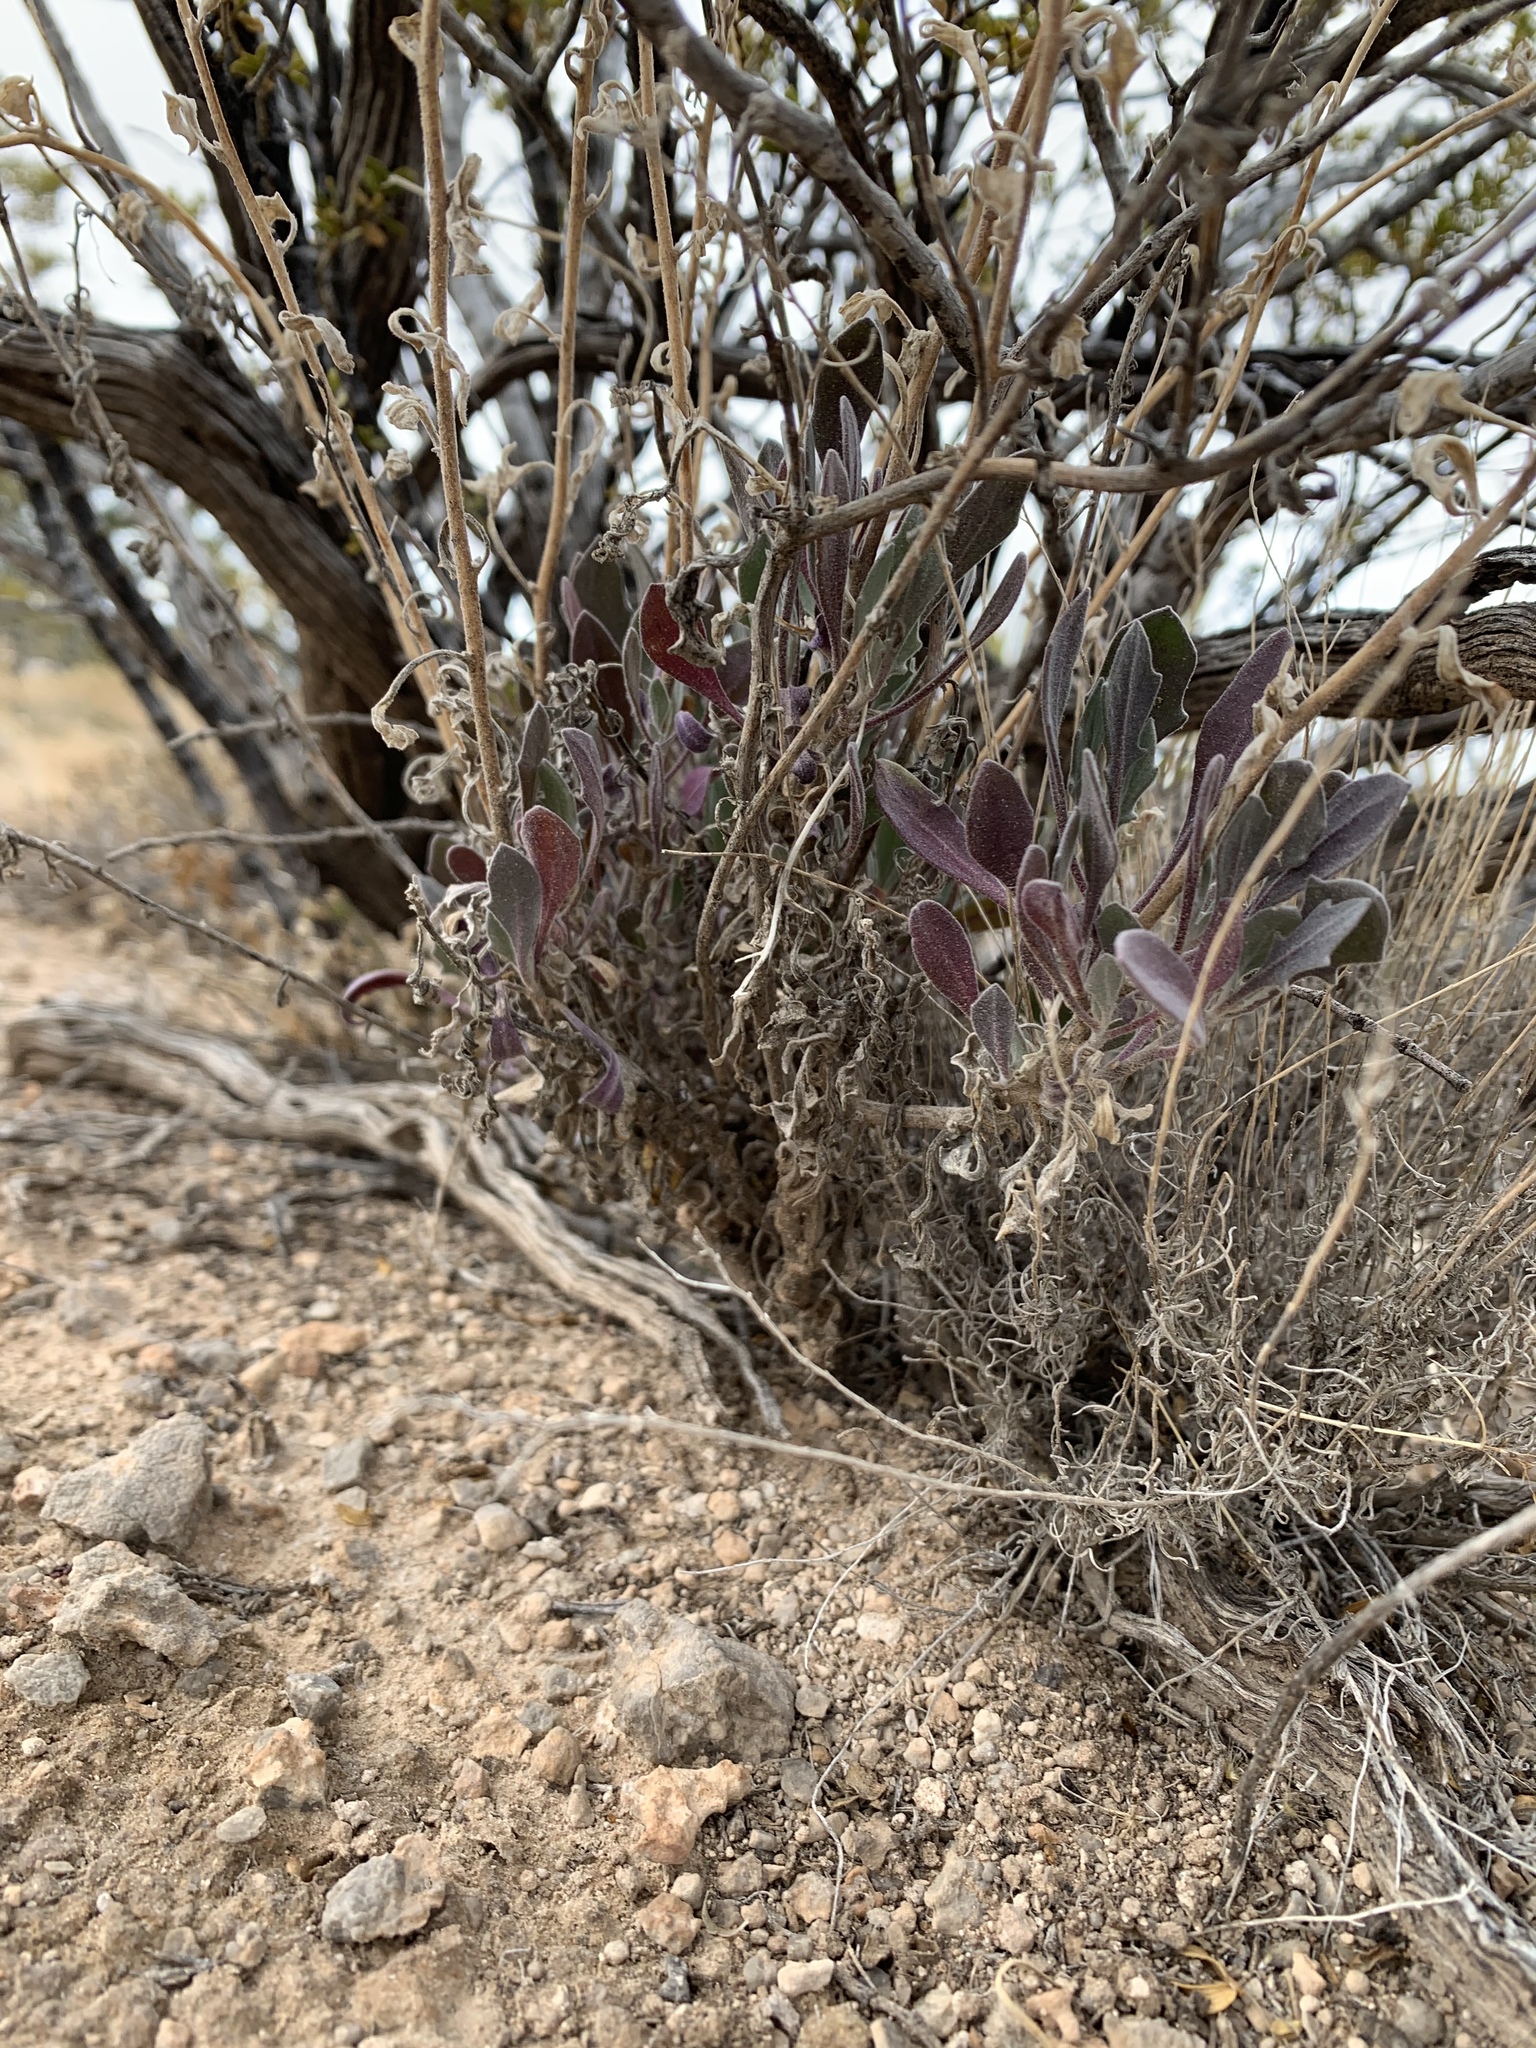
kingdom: Plantae
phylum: Tracheophyta
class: Magnoliopsida
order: Brassicales
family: Brassicaceae
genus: Nerisyrenia
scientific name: Nerisyrenia camporum
